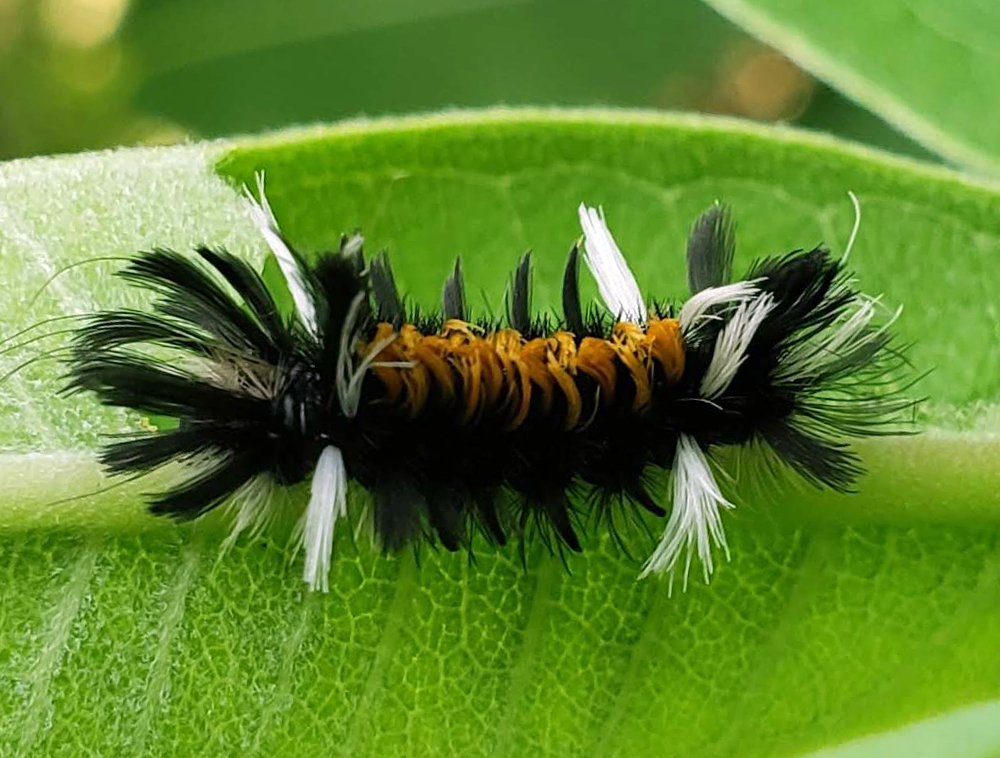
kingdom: Animalia
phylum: Arthropoda
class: Insecta
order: Lepidoptera
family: Erebidae
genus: Euchaetes
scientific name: Euchaetes egle
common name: Milkweed tussock moth
